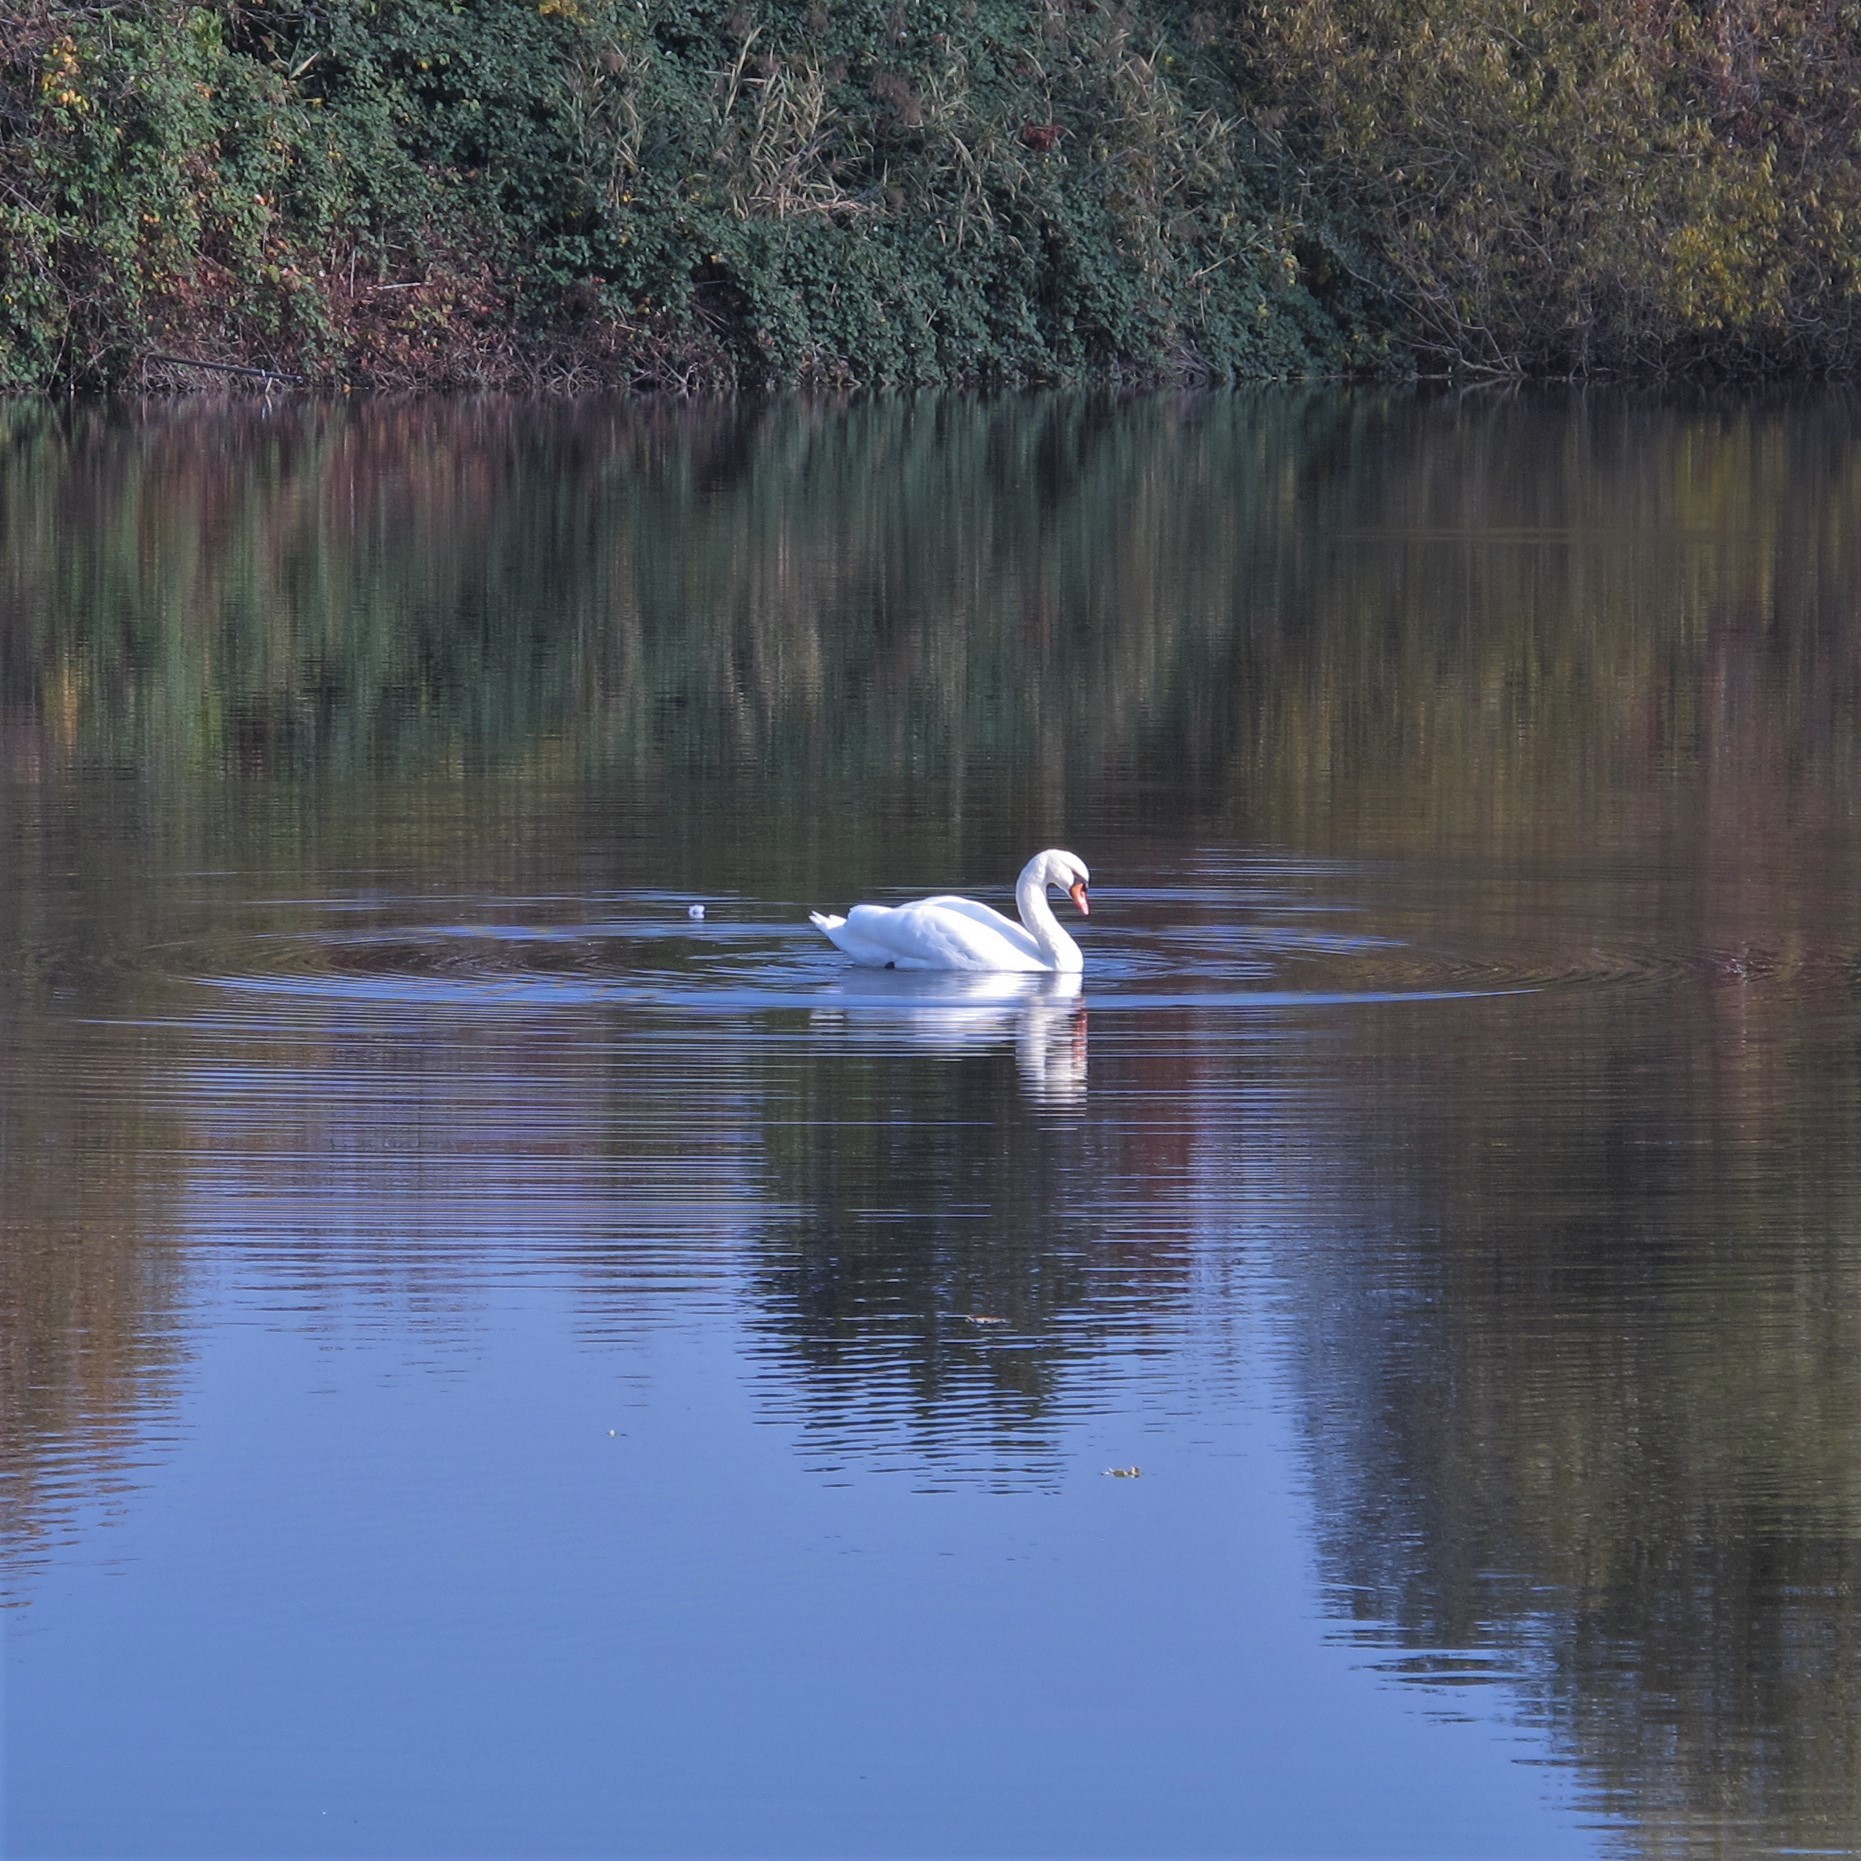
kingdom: Animalia
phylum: Chordata
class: Aves
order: Anseriformes
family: Anatidae
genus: Cygnus
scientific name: Cygnus olor
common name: Mute swan
